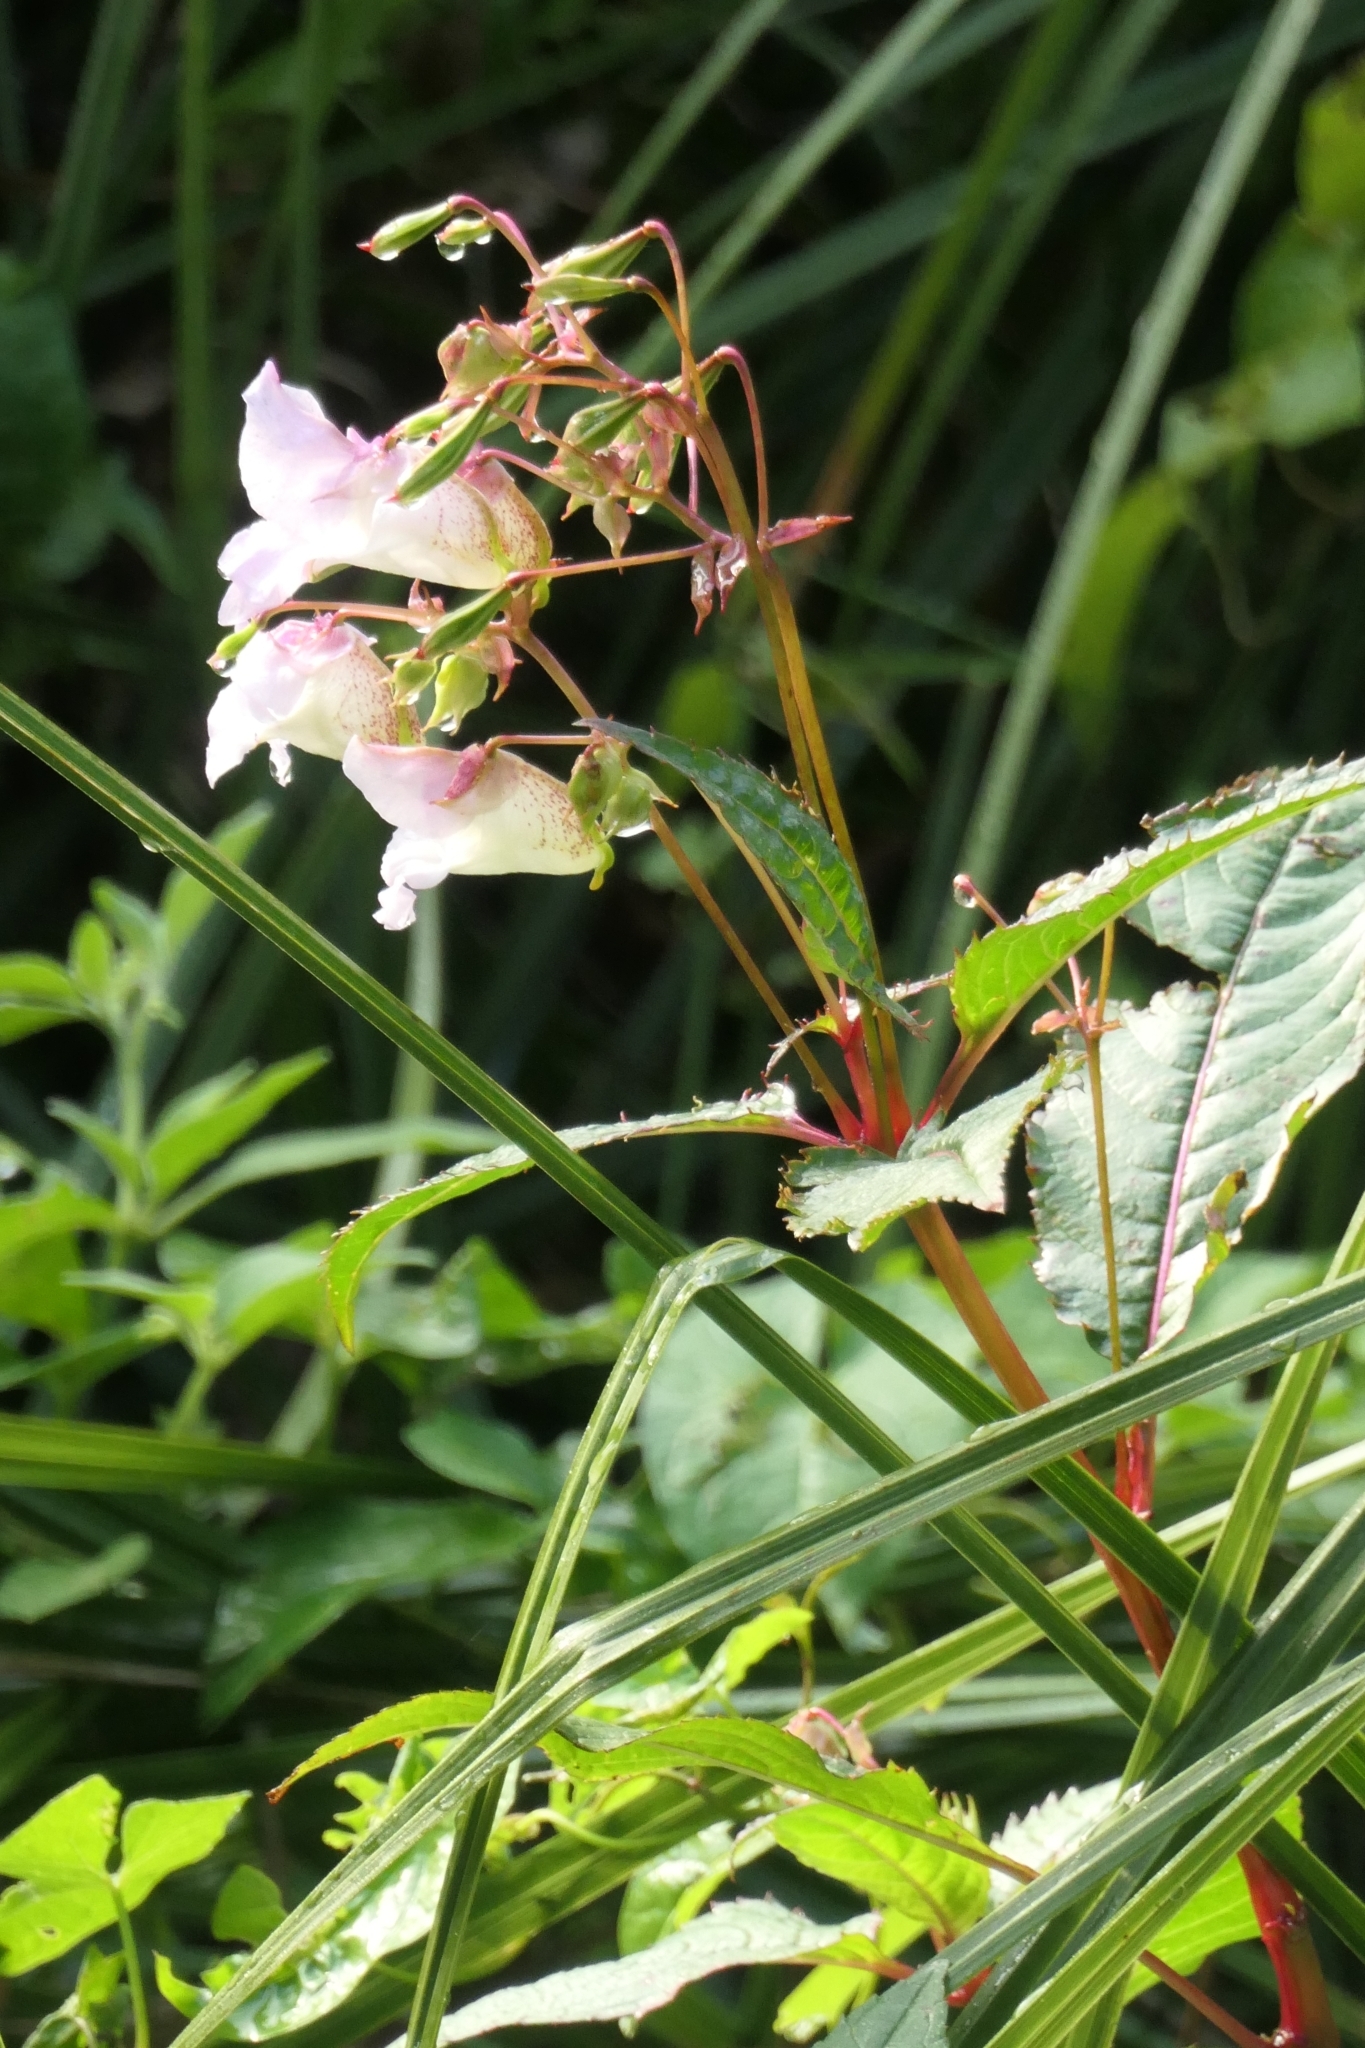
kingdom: Plantae
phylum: Tracheophyta
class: Magnoliopsida
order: Ericales
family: Balsaminaceae
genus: Impatiens
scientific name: Impatiens glandulifera
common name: Himalayan balsam
